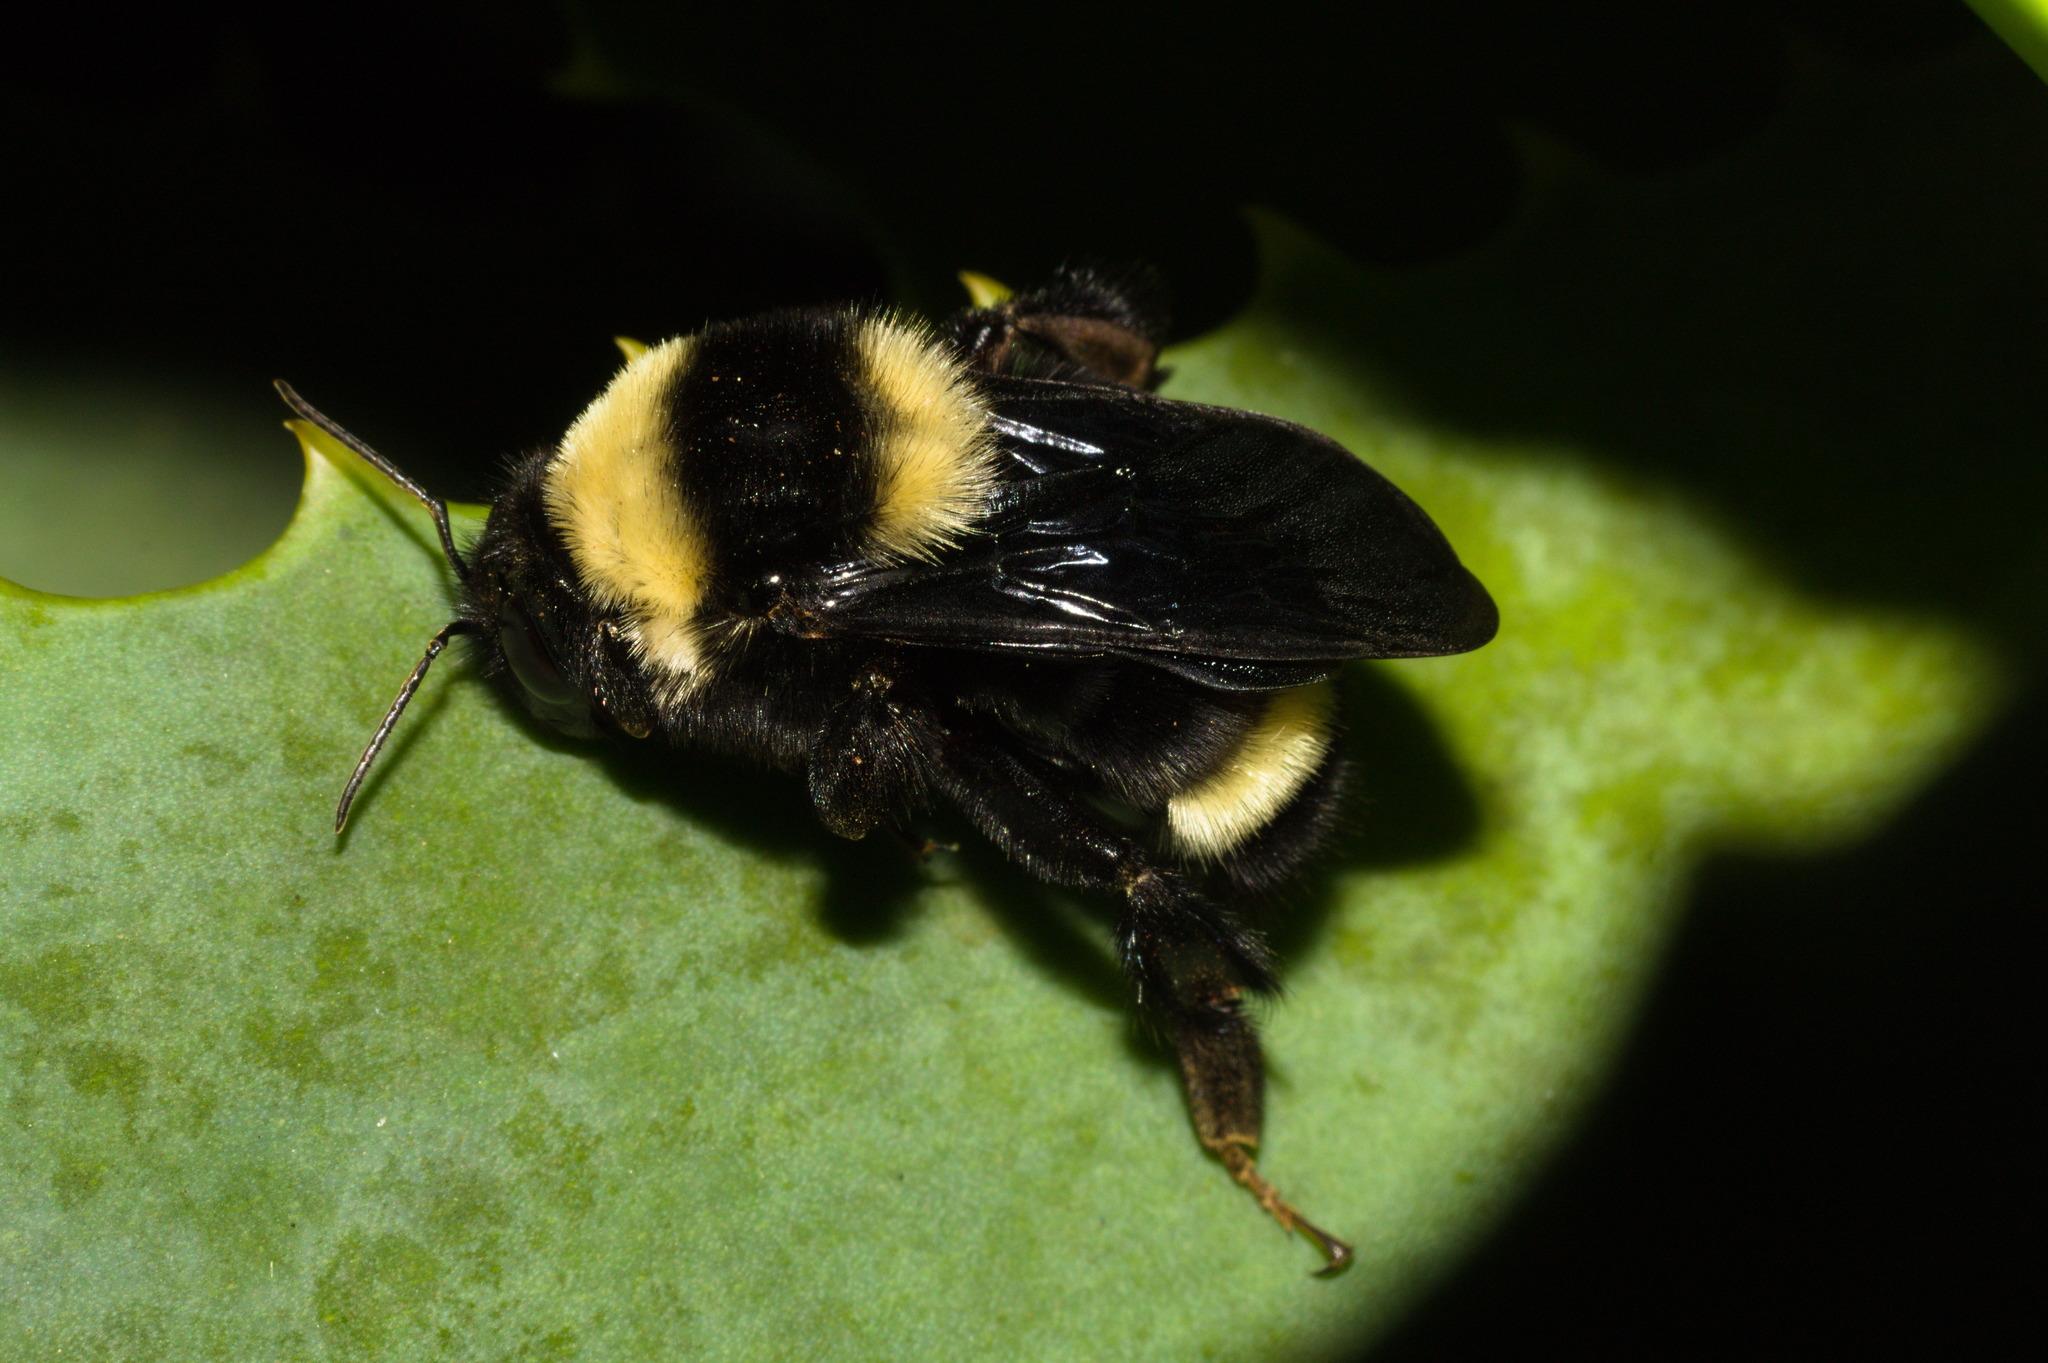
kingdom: Animalia
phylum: Arthropoda
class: Insecta
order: Hymenoptera
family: Apidae
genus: Bombus
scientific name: Bombus pauloensis
